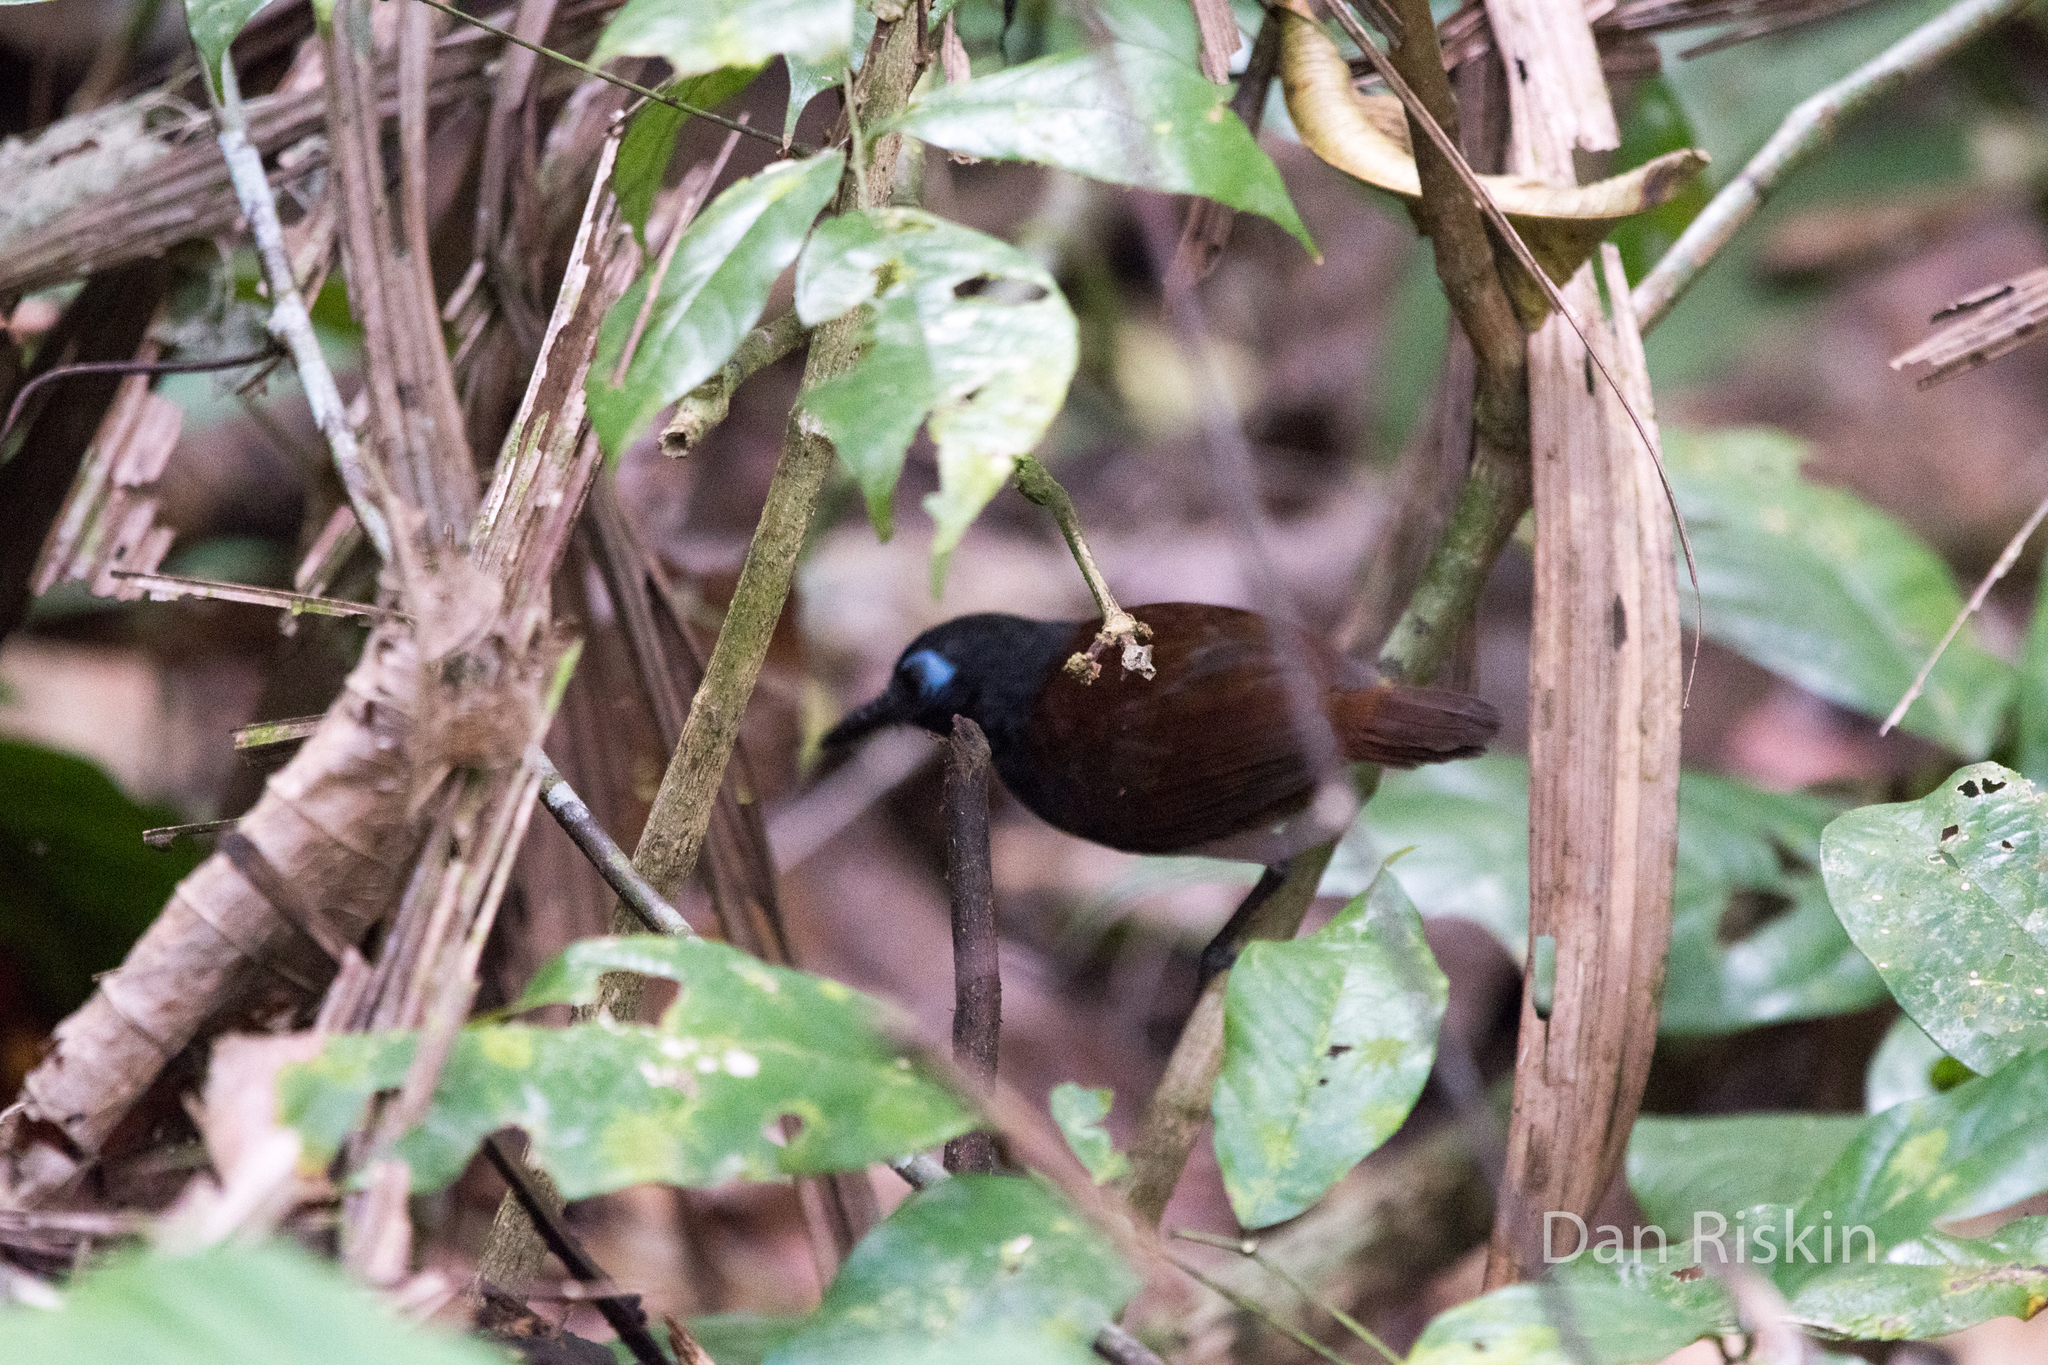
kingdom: Animalia
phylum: Chordata
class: Aves
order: Passeriformes
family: Thamnophilidae
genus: Myrmeciza
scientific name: Myrmeciza exsul
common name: Chestnut-backed antbird
